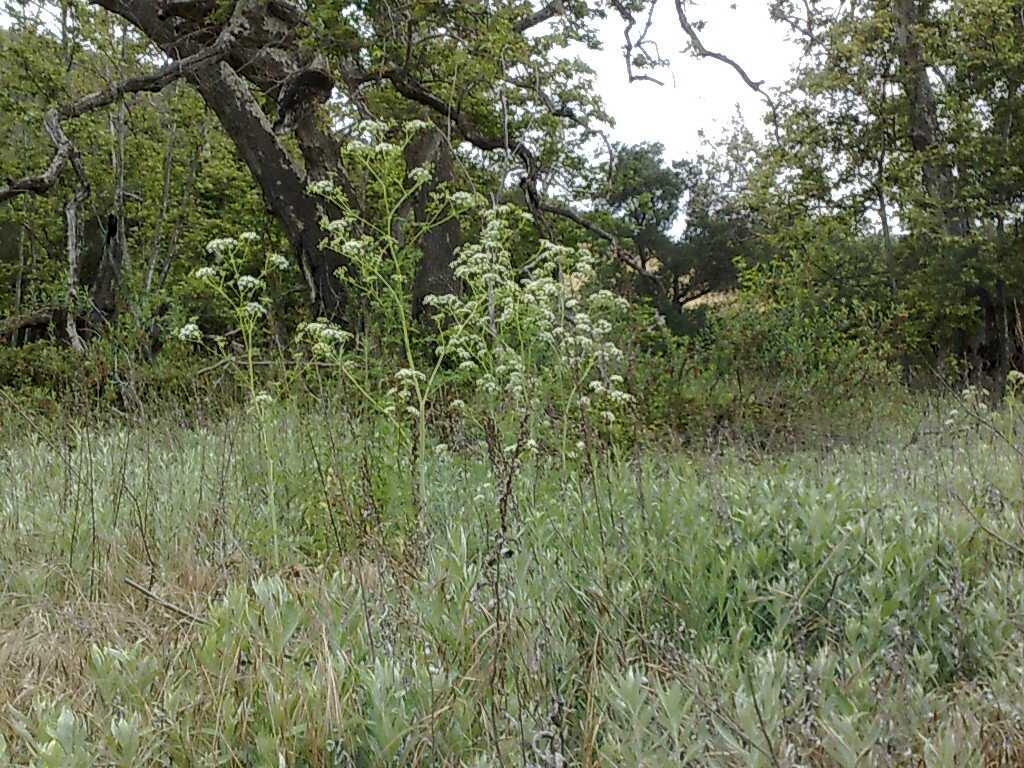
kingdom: Plantae
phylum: Tracheophyta
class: Magnoliopsida
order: Asterales
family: Asteraceae
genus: Artemisia
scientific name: Artemisia douglasiana
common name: Northwest mugwort
